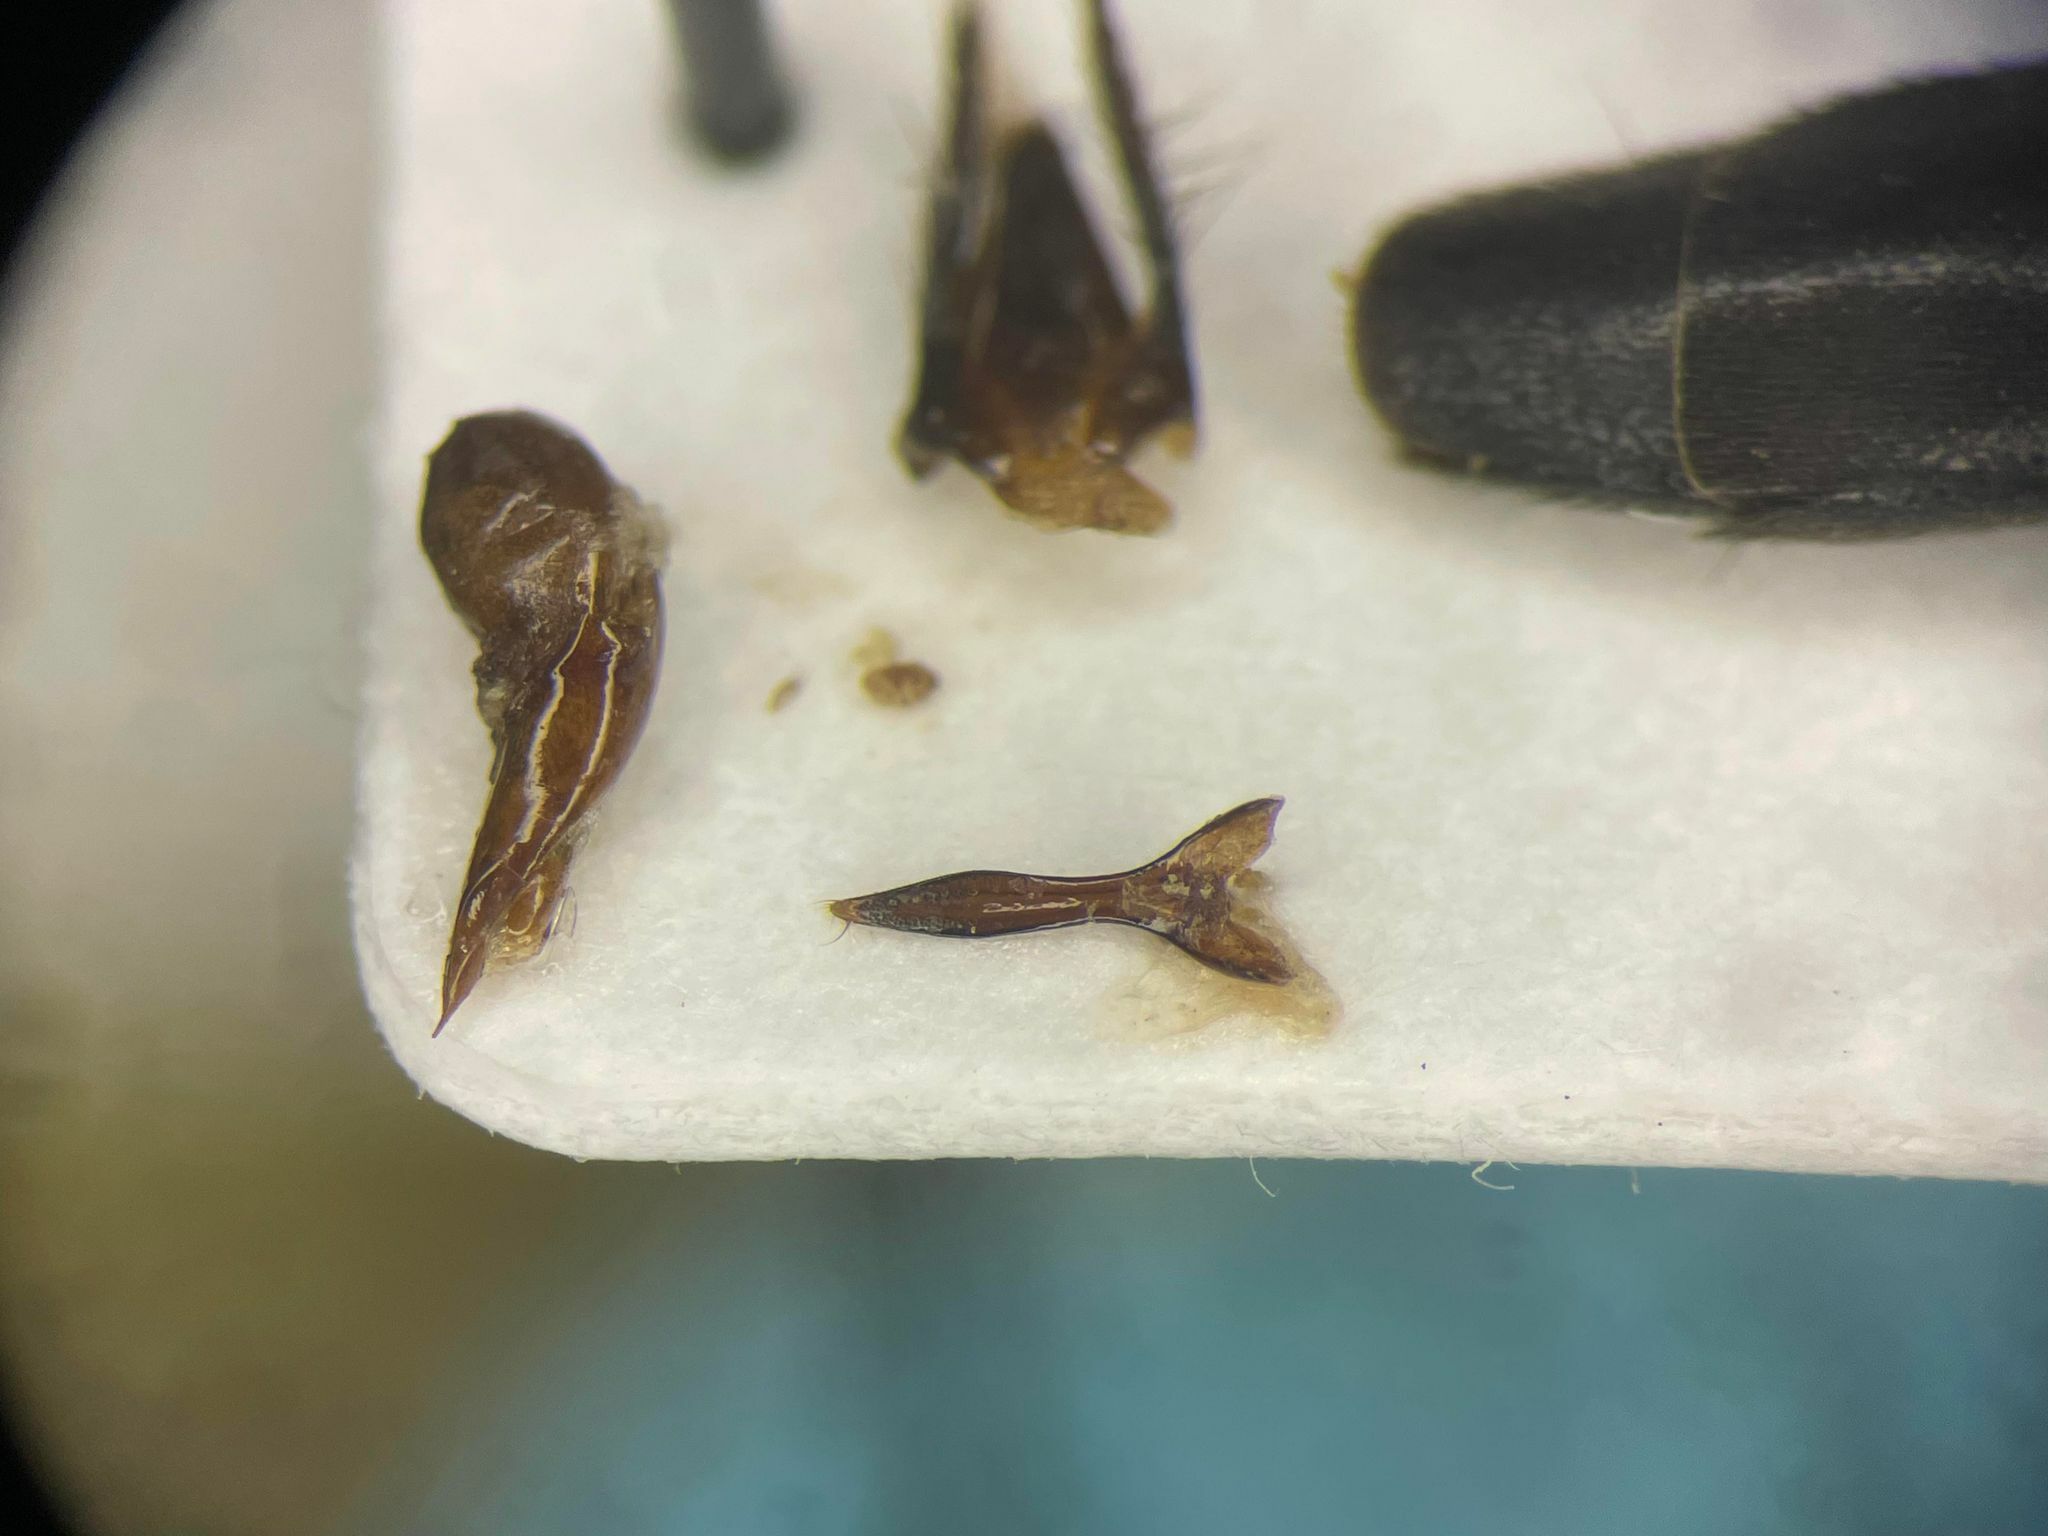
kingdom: Animalia
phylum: Arthropoda
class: Insecta
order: Coleoptera
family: Staphylinidae
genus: Quedius
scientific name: Quedius molochinus
